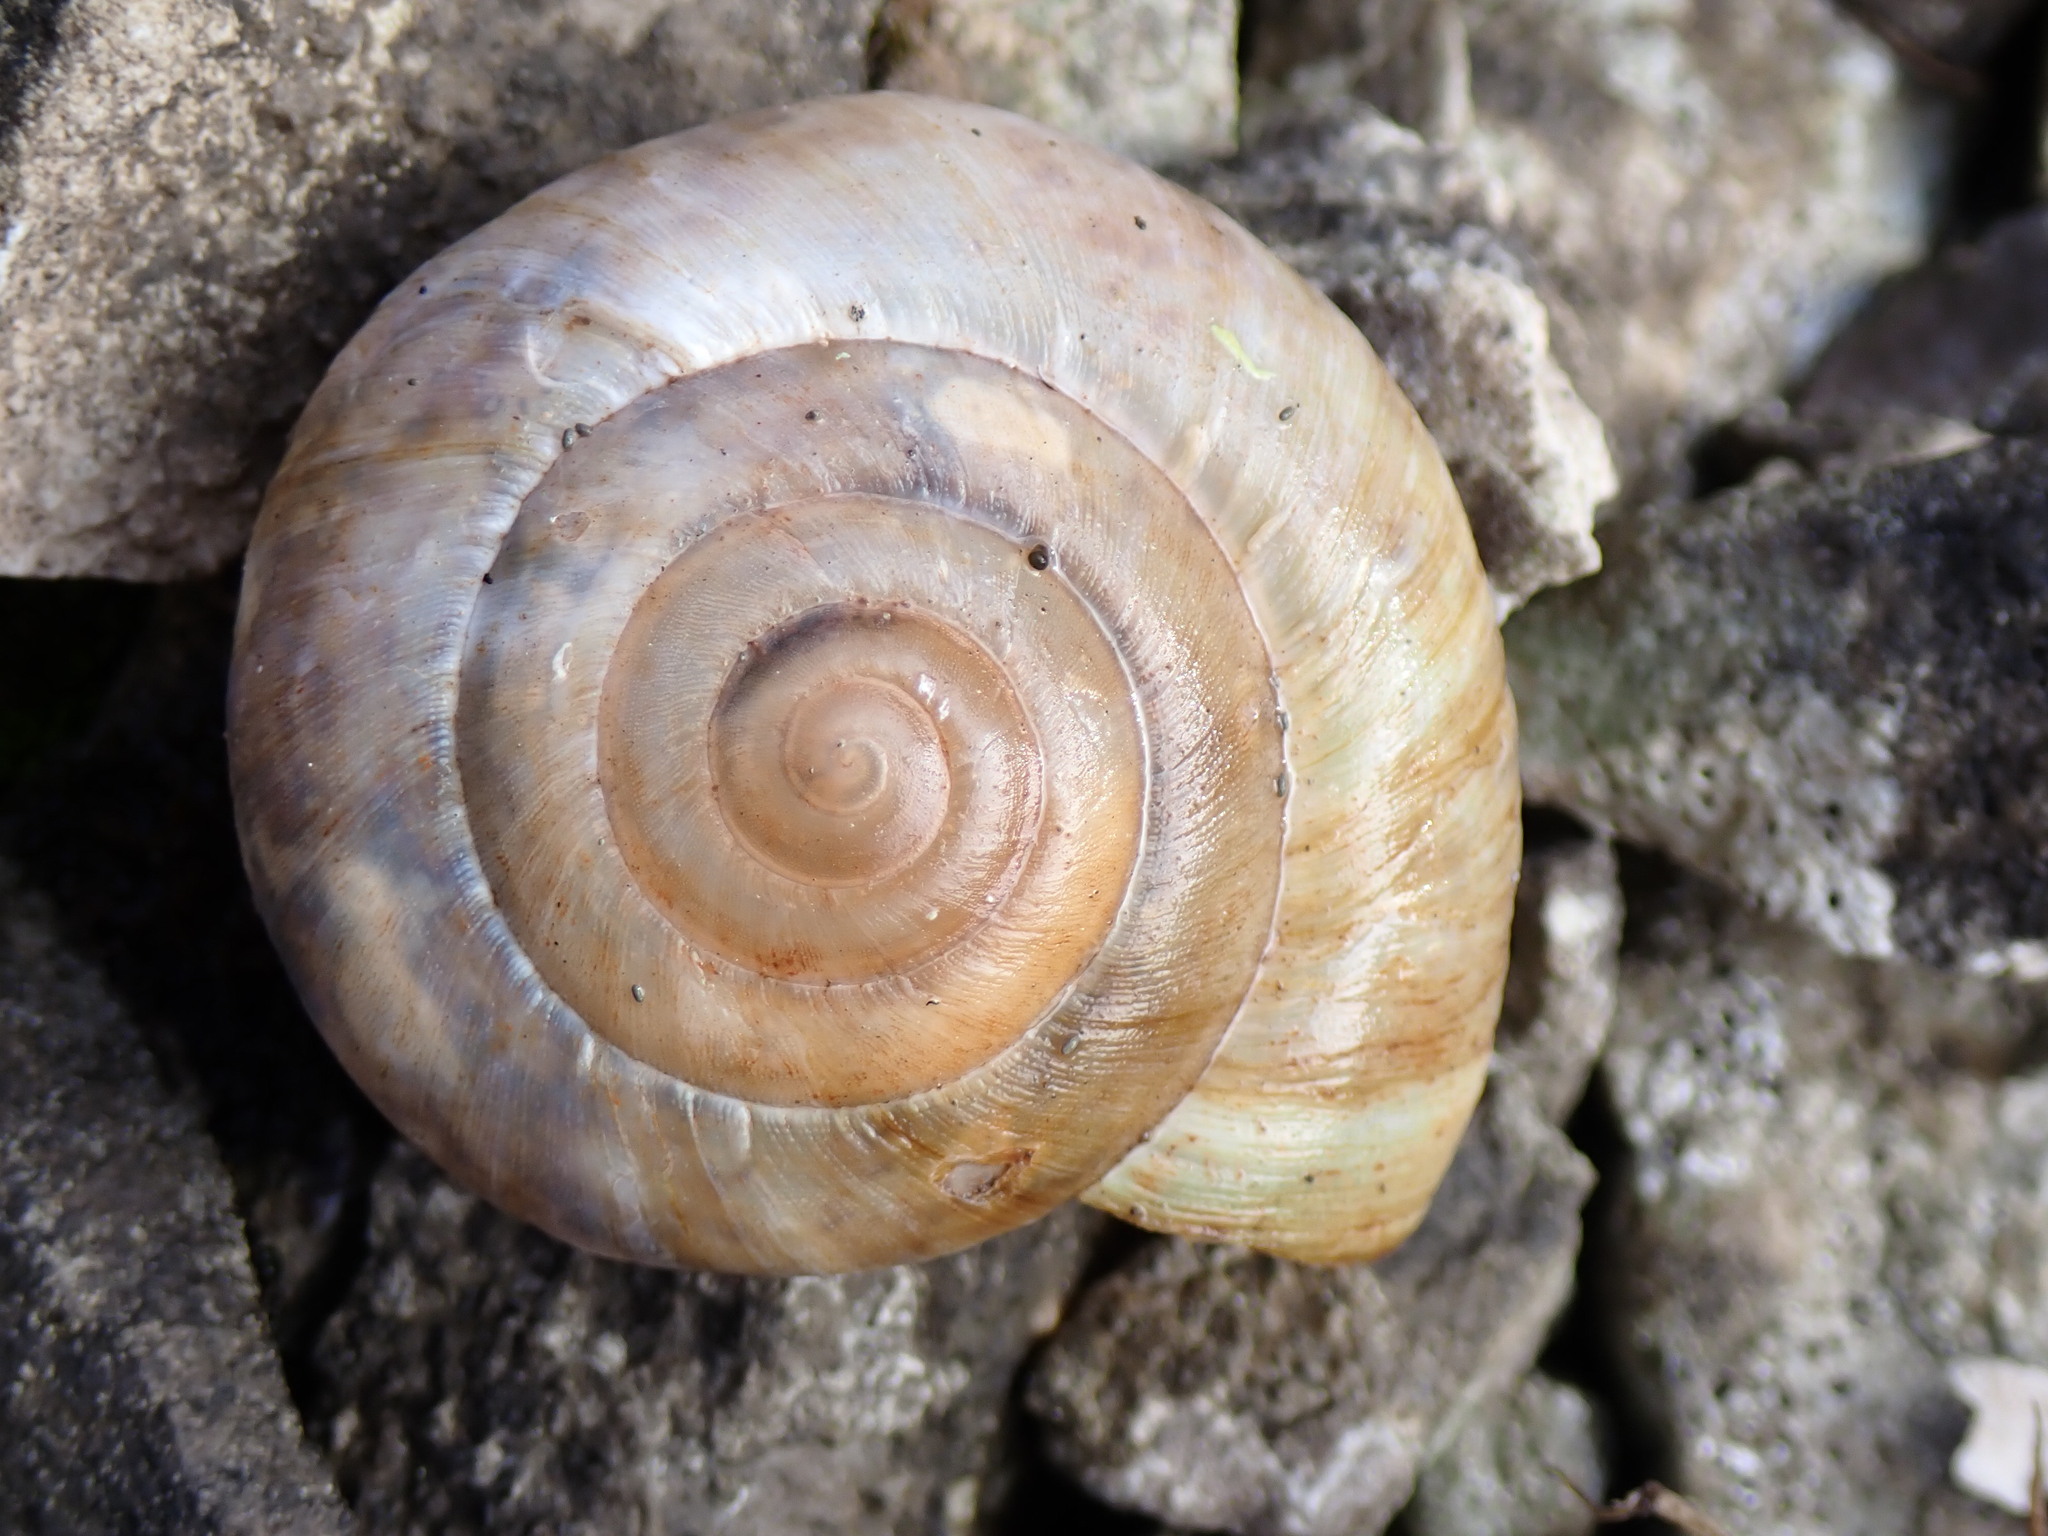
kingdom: Animalia
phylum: Mollusca
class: Gastropoda
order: Stylommatophora
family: Zonitidae
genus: Zonites
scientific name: Zonites algirus
